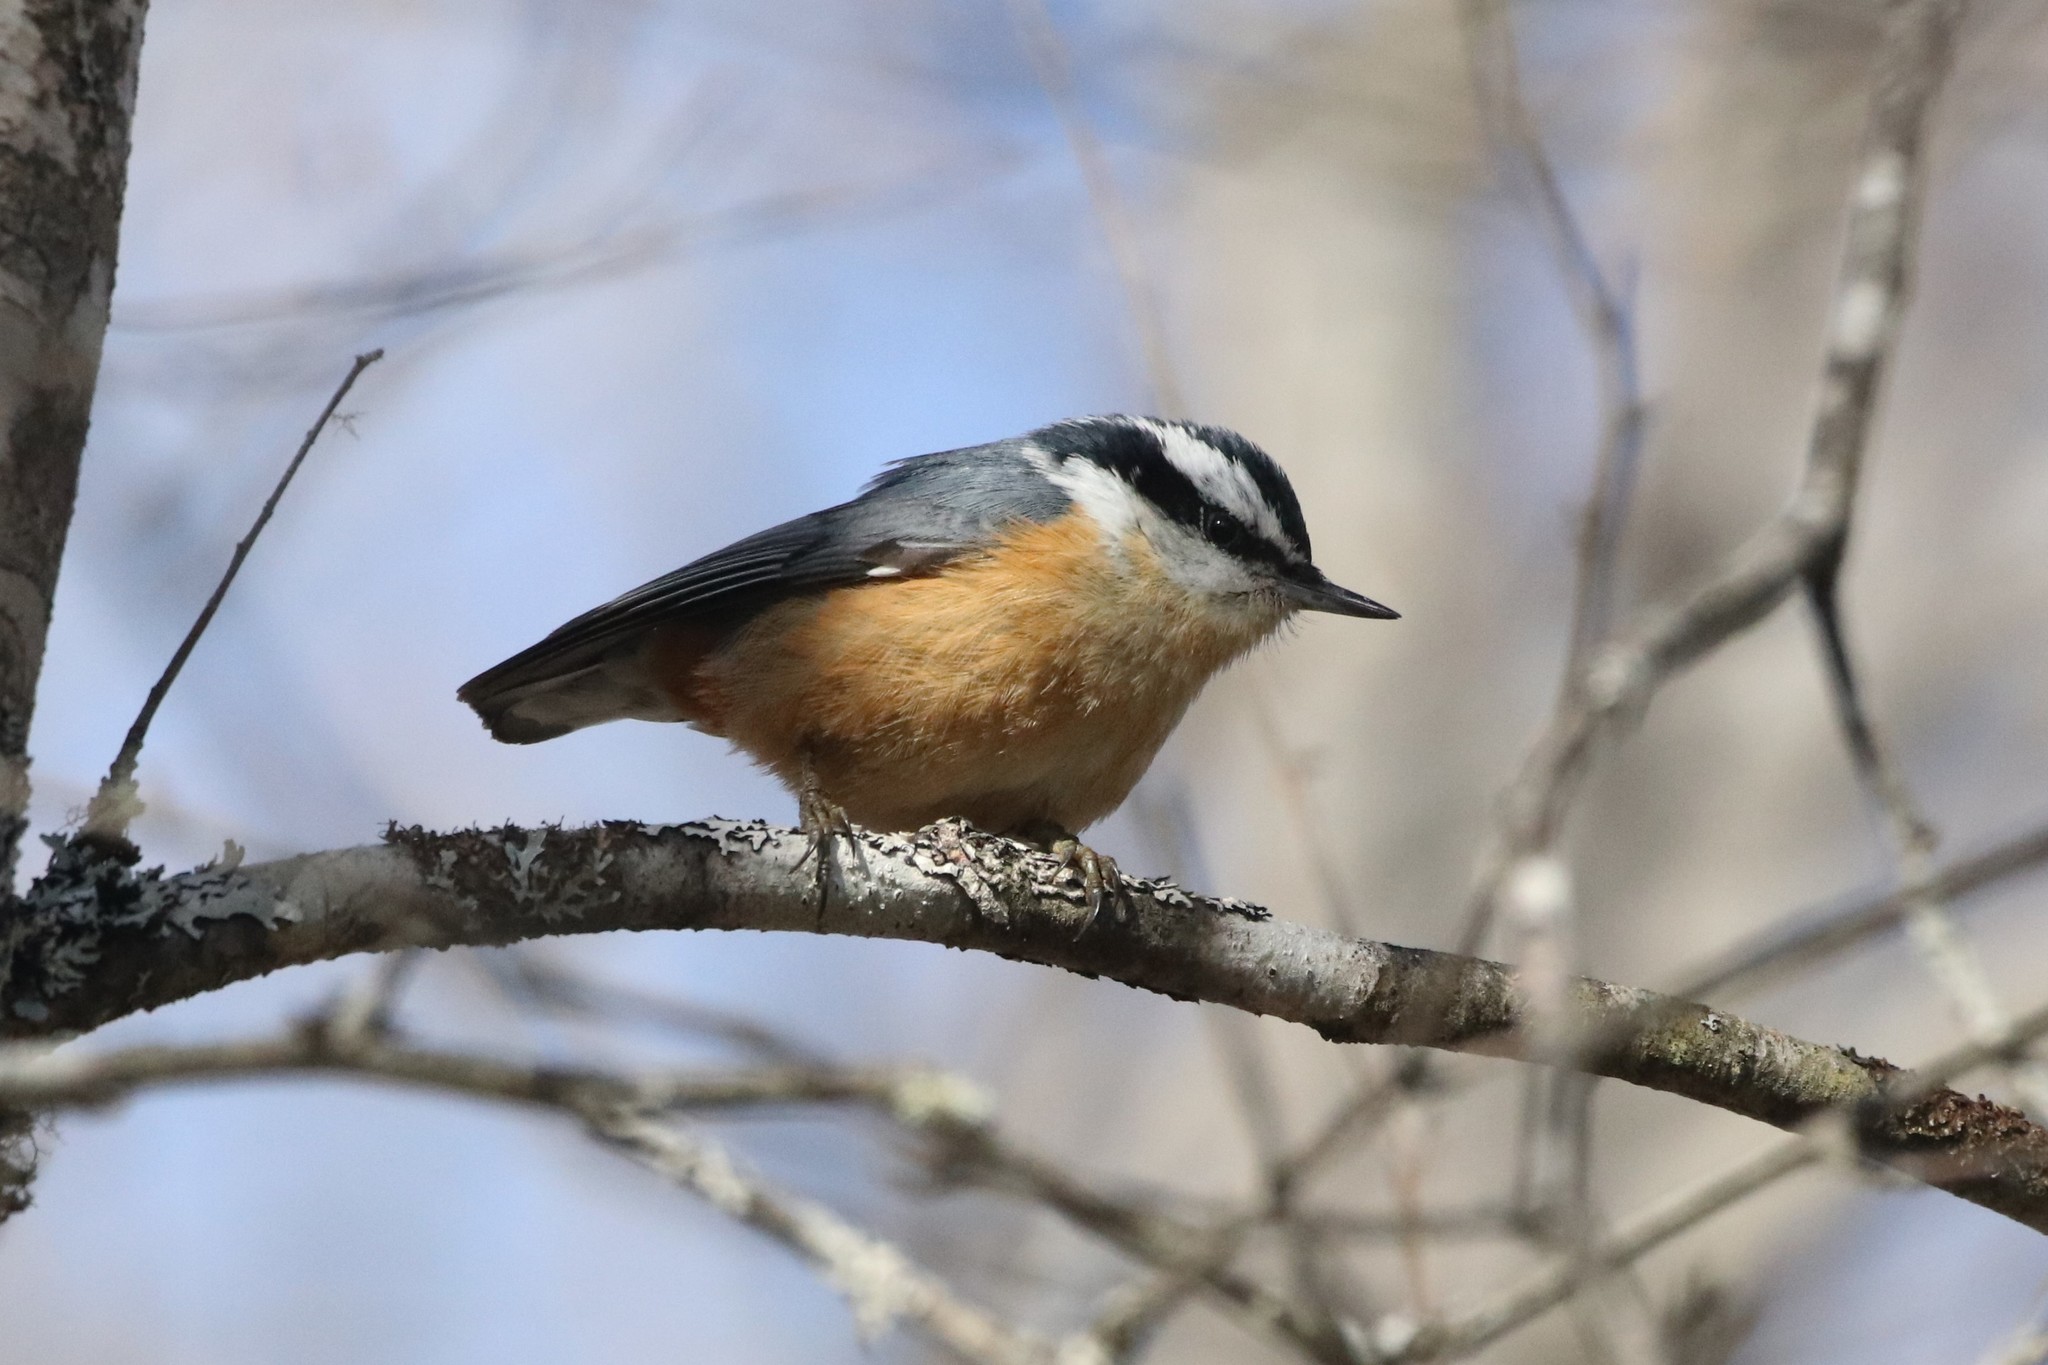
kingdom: Animalia
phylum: Chordata
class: Aves
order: Passeriformes
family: Sittidae
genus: Sitta
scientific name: Sitta canadensis
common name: Red-breasted nuthatch
